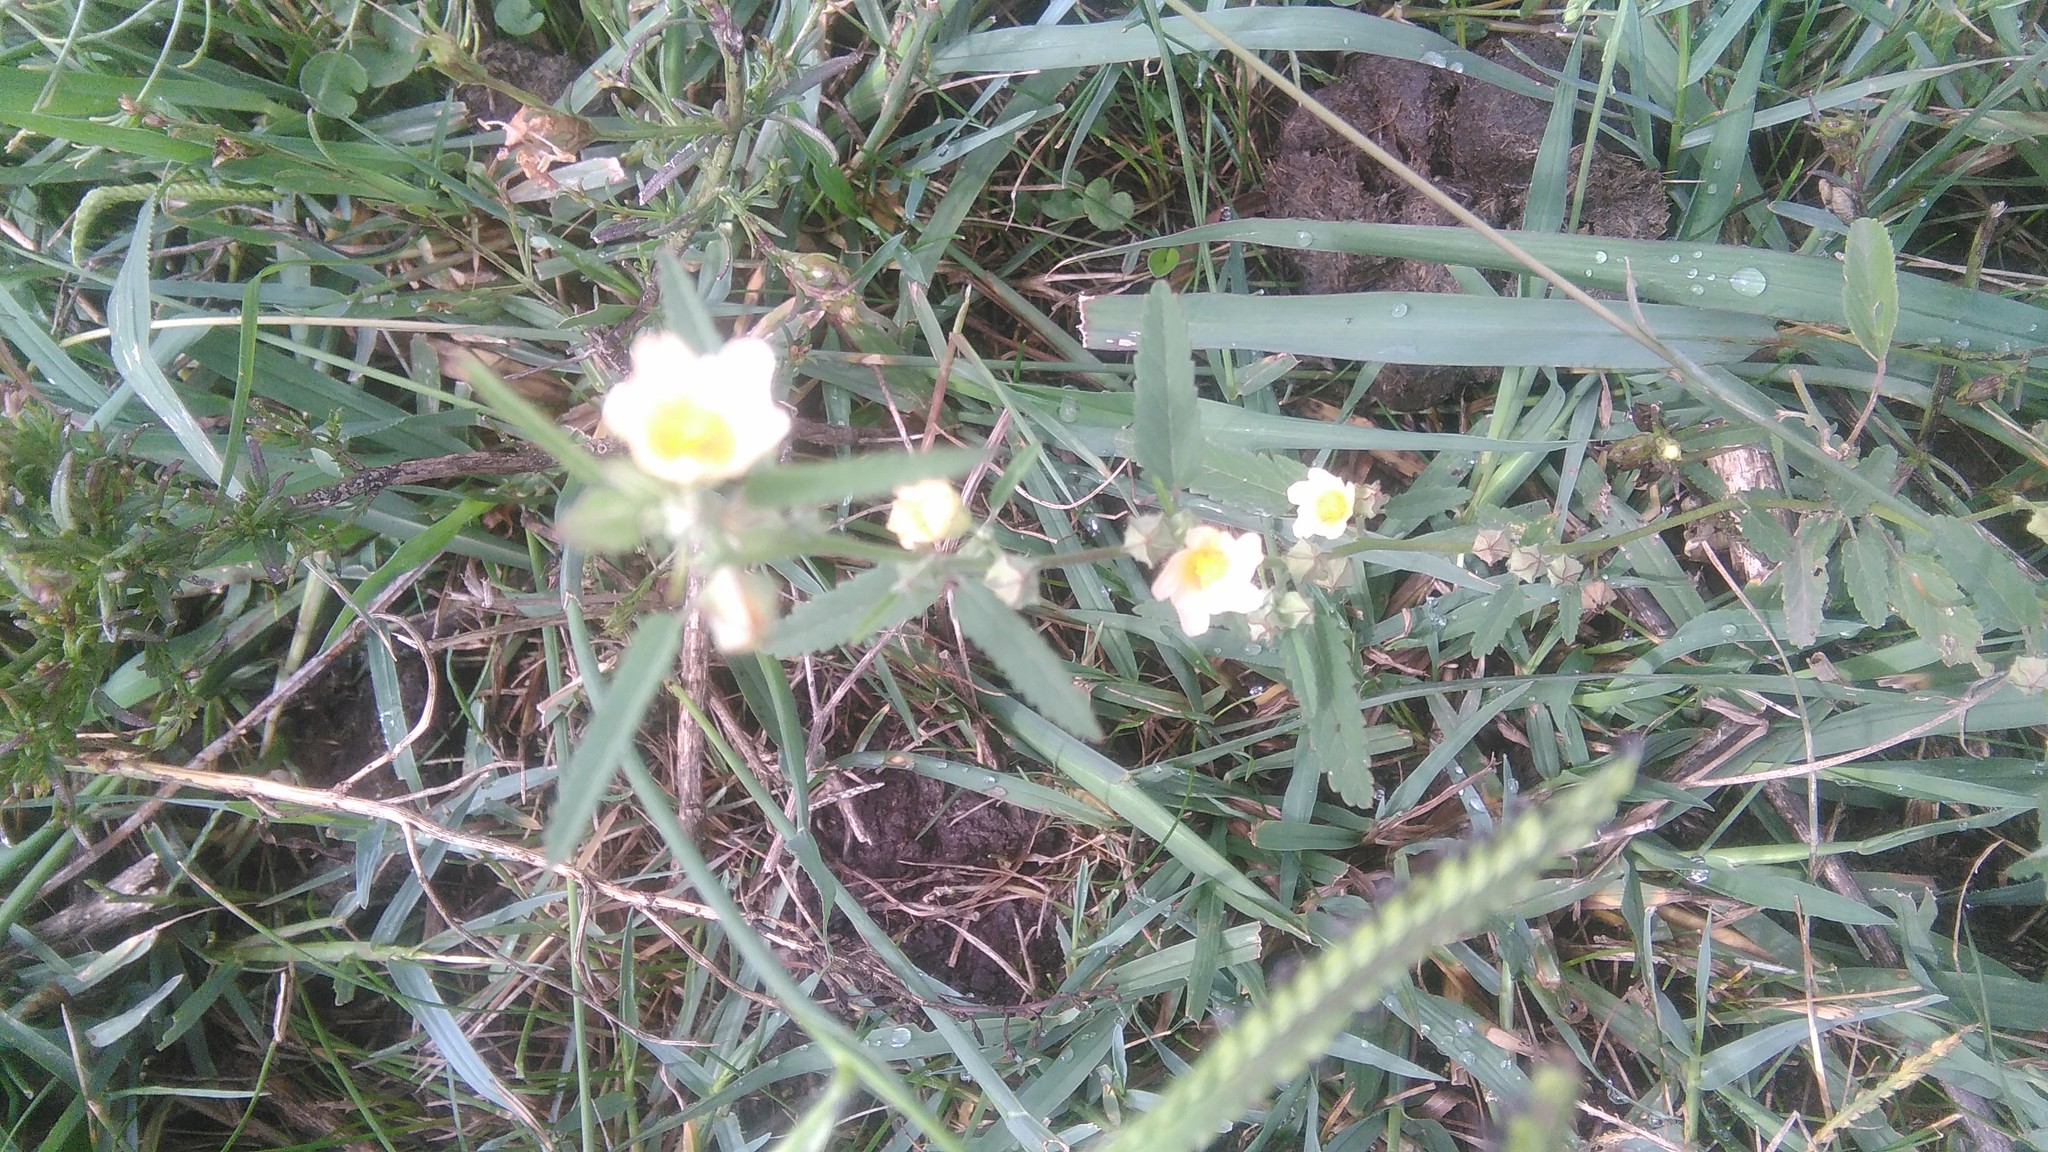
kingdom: Plantae
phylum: Tracheophyta
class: Magnoliopsida
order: Malvales
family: Malvaceae
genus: Sida
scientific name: Sida rhombifolia
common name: Queensland-hemp
